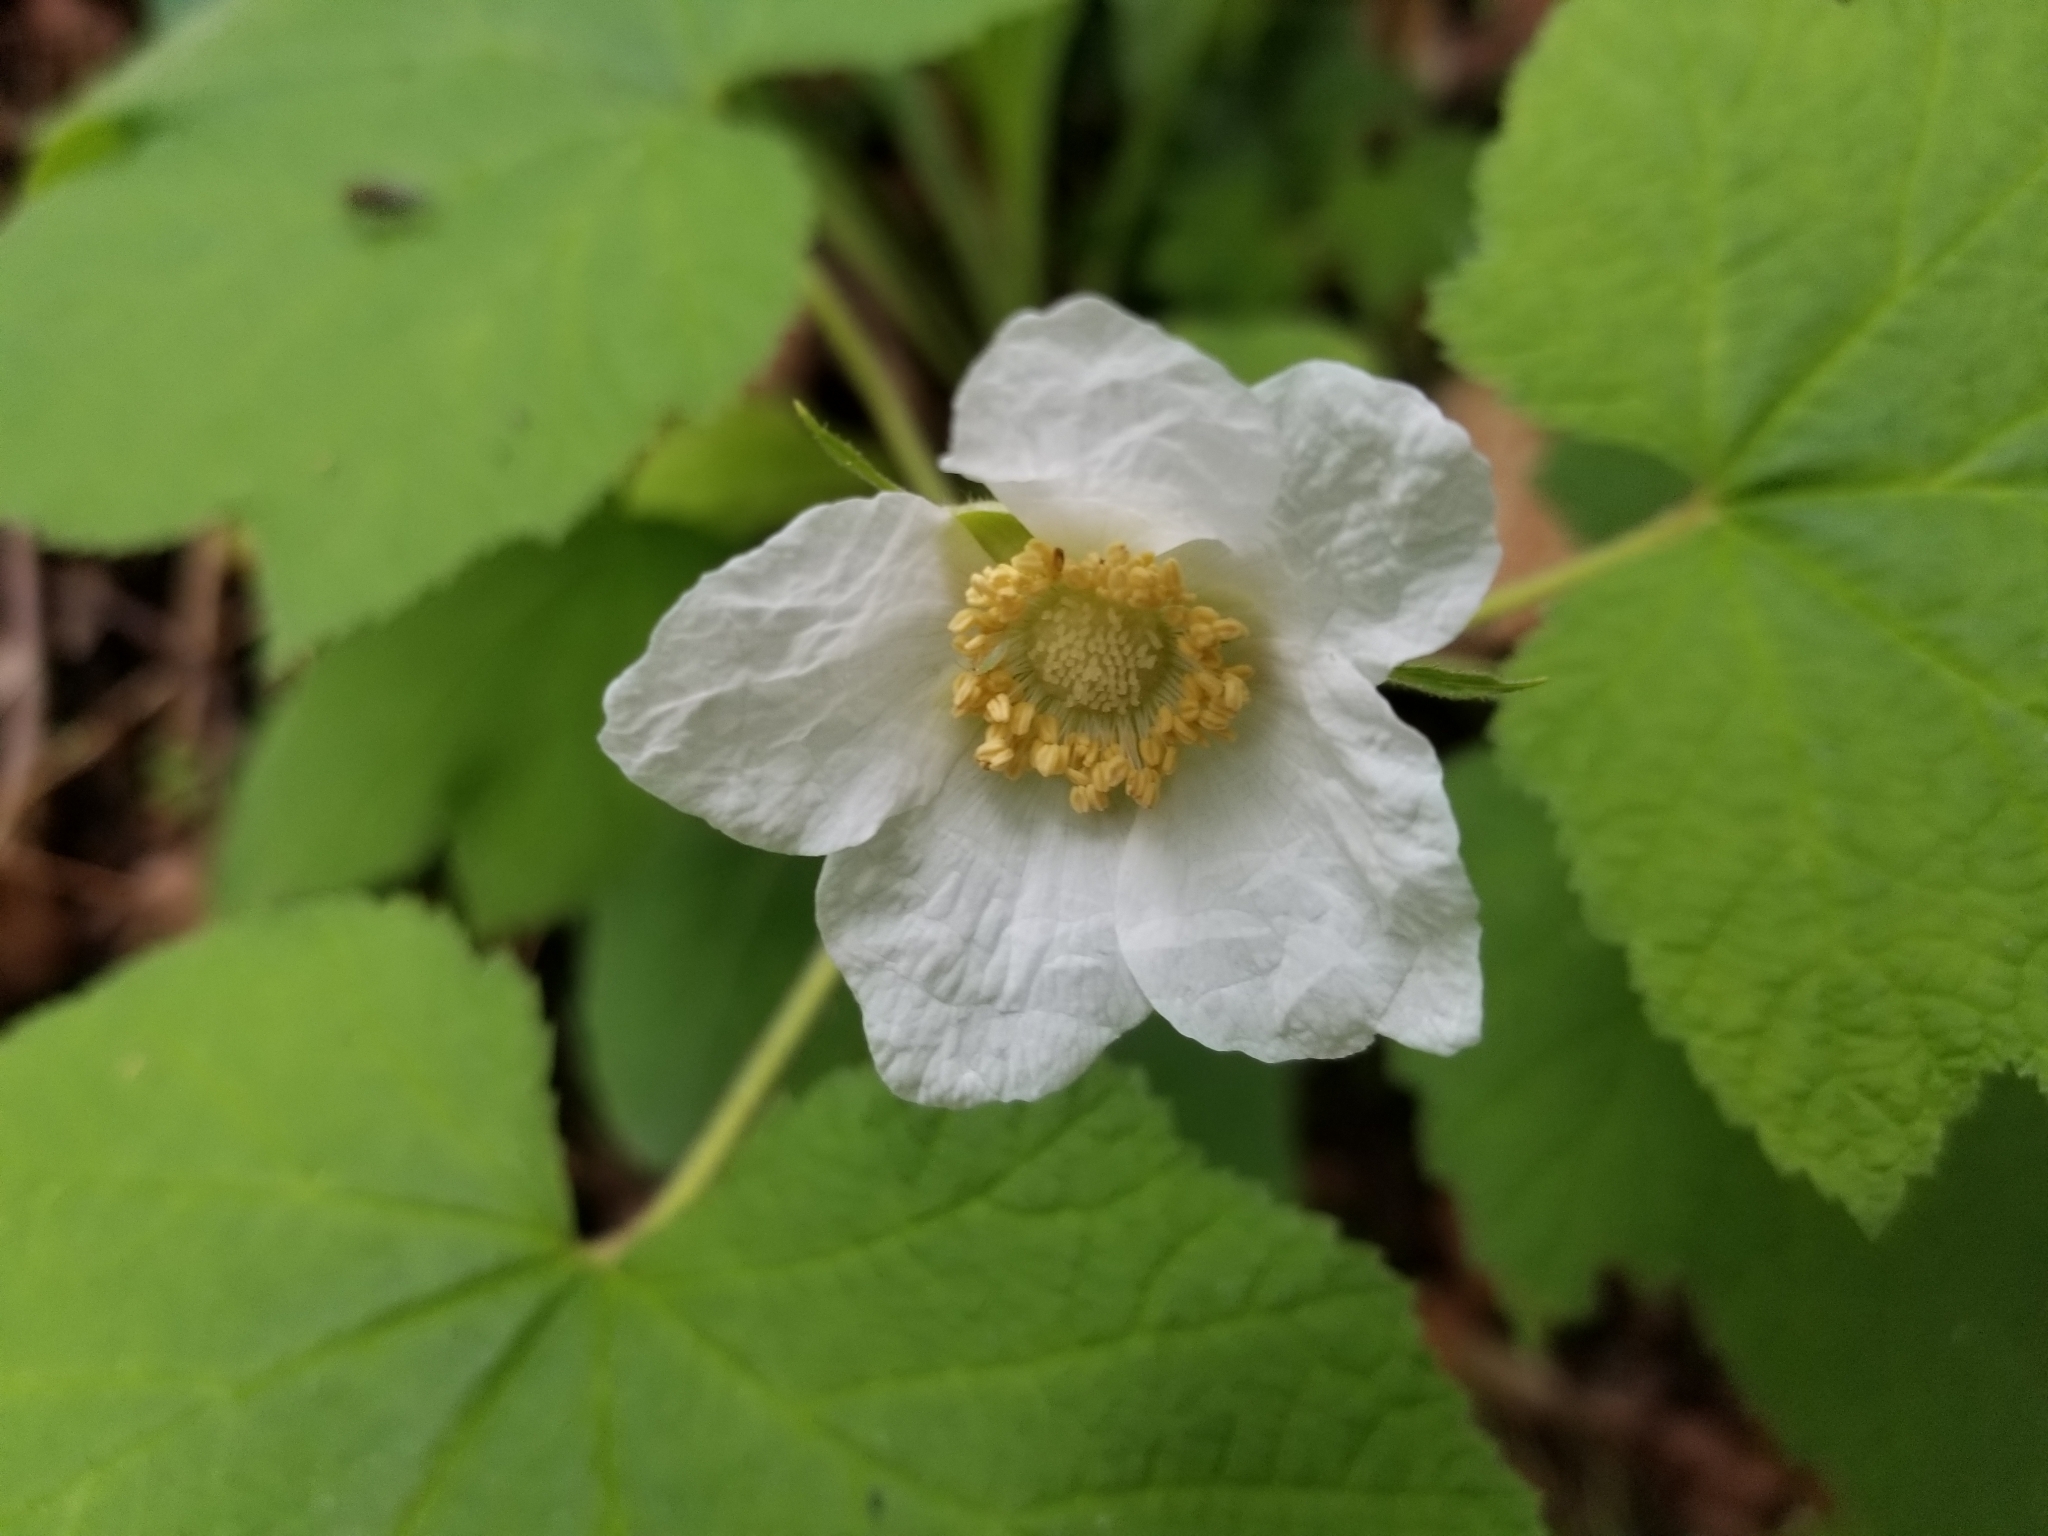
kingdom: Plantae
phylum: Tracheophyta
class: Magnoliopsida
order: Rosales
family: Rosaceae
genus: Rubus
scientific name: Rubus parviflorus
